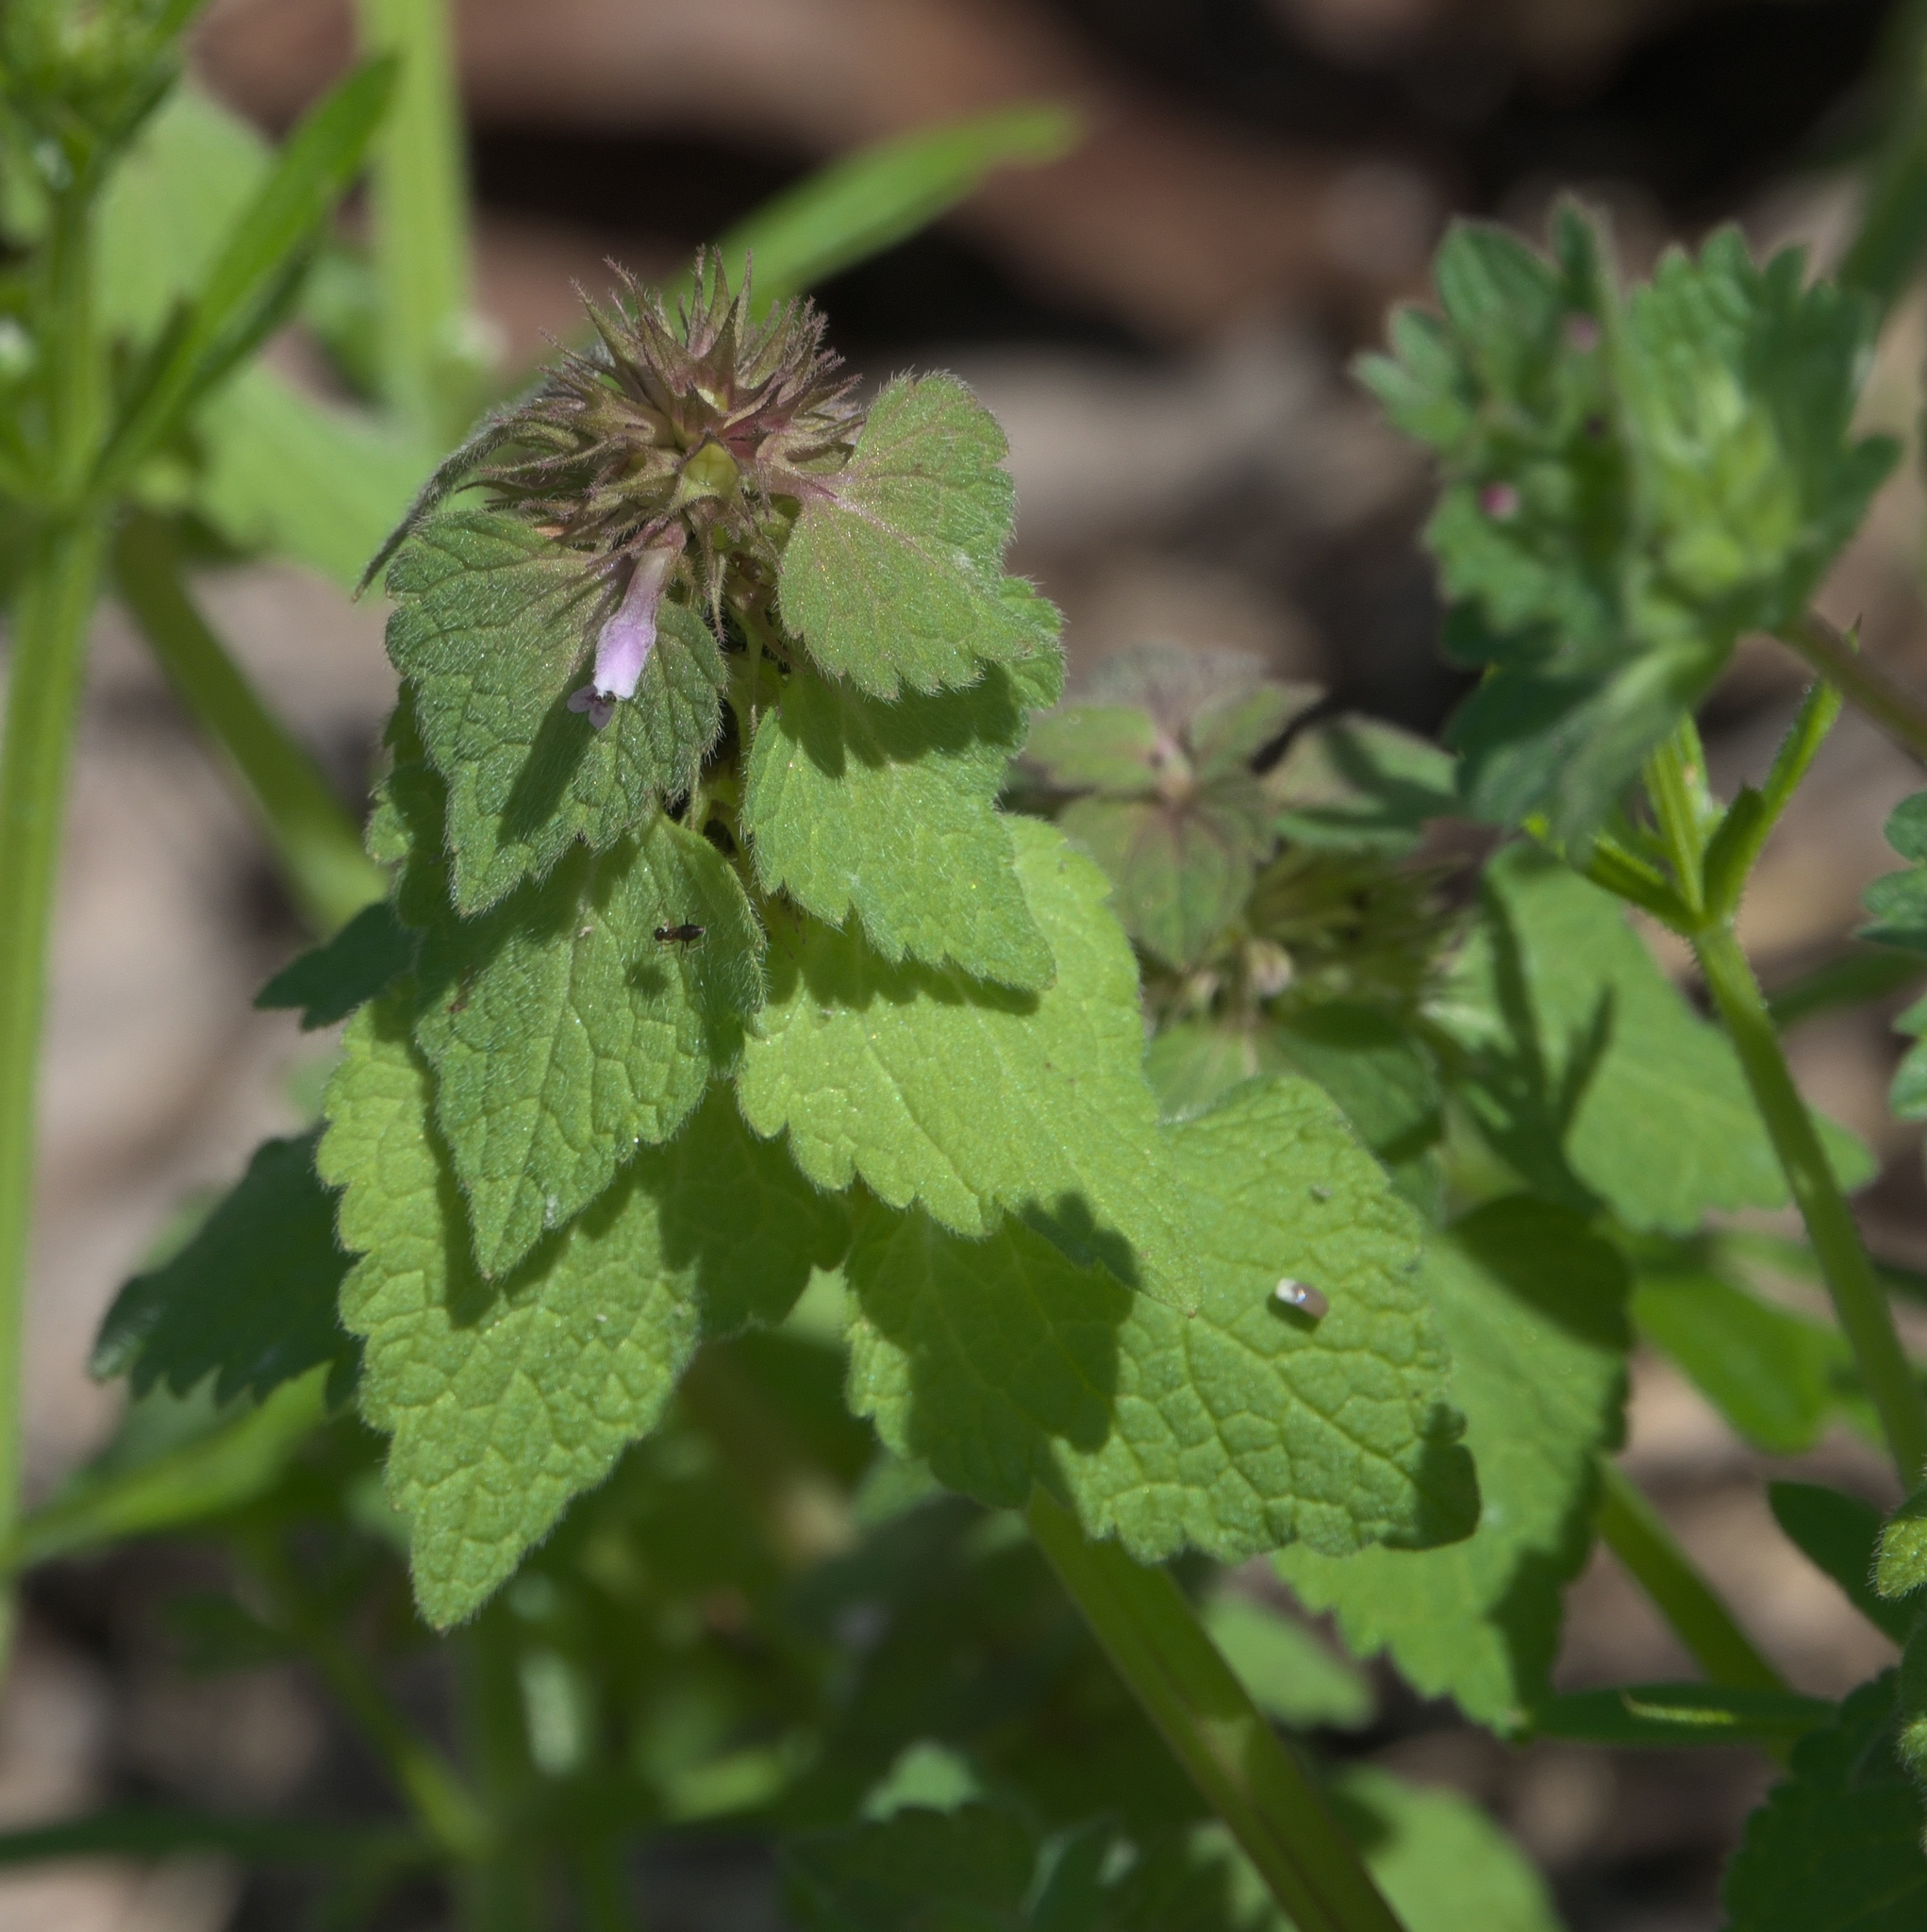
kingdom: Plantae
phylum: Tracheophyta
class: Magnoliopsida
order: Lamiales
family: Lamiaceae
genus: Lamium
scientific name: Lamium purpureum
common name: Red dead-nettle
